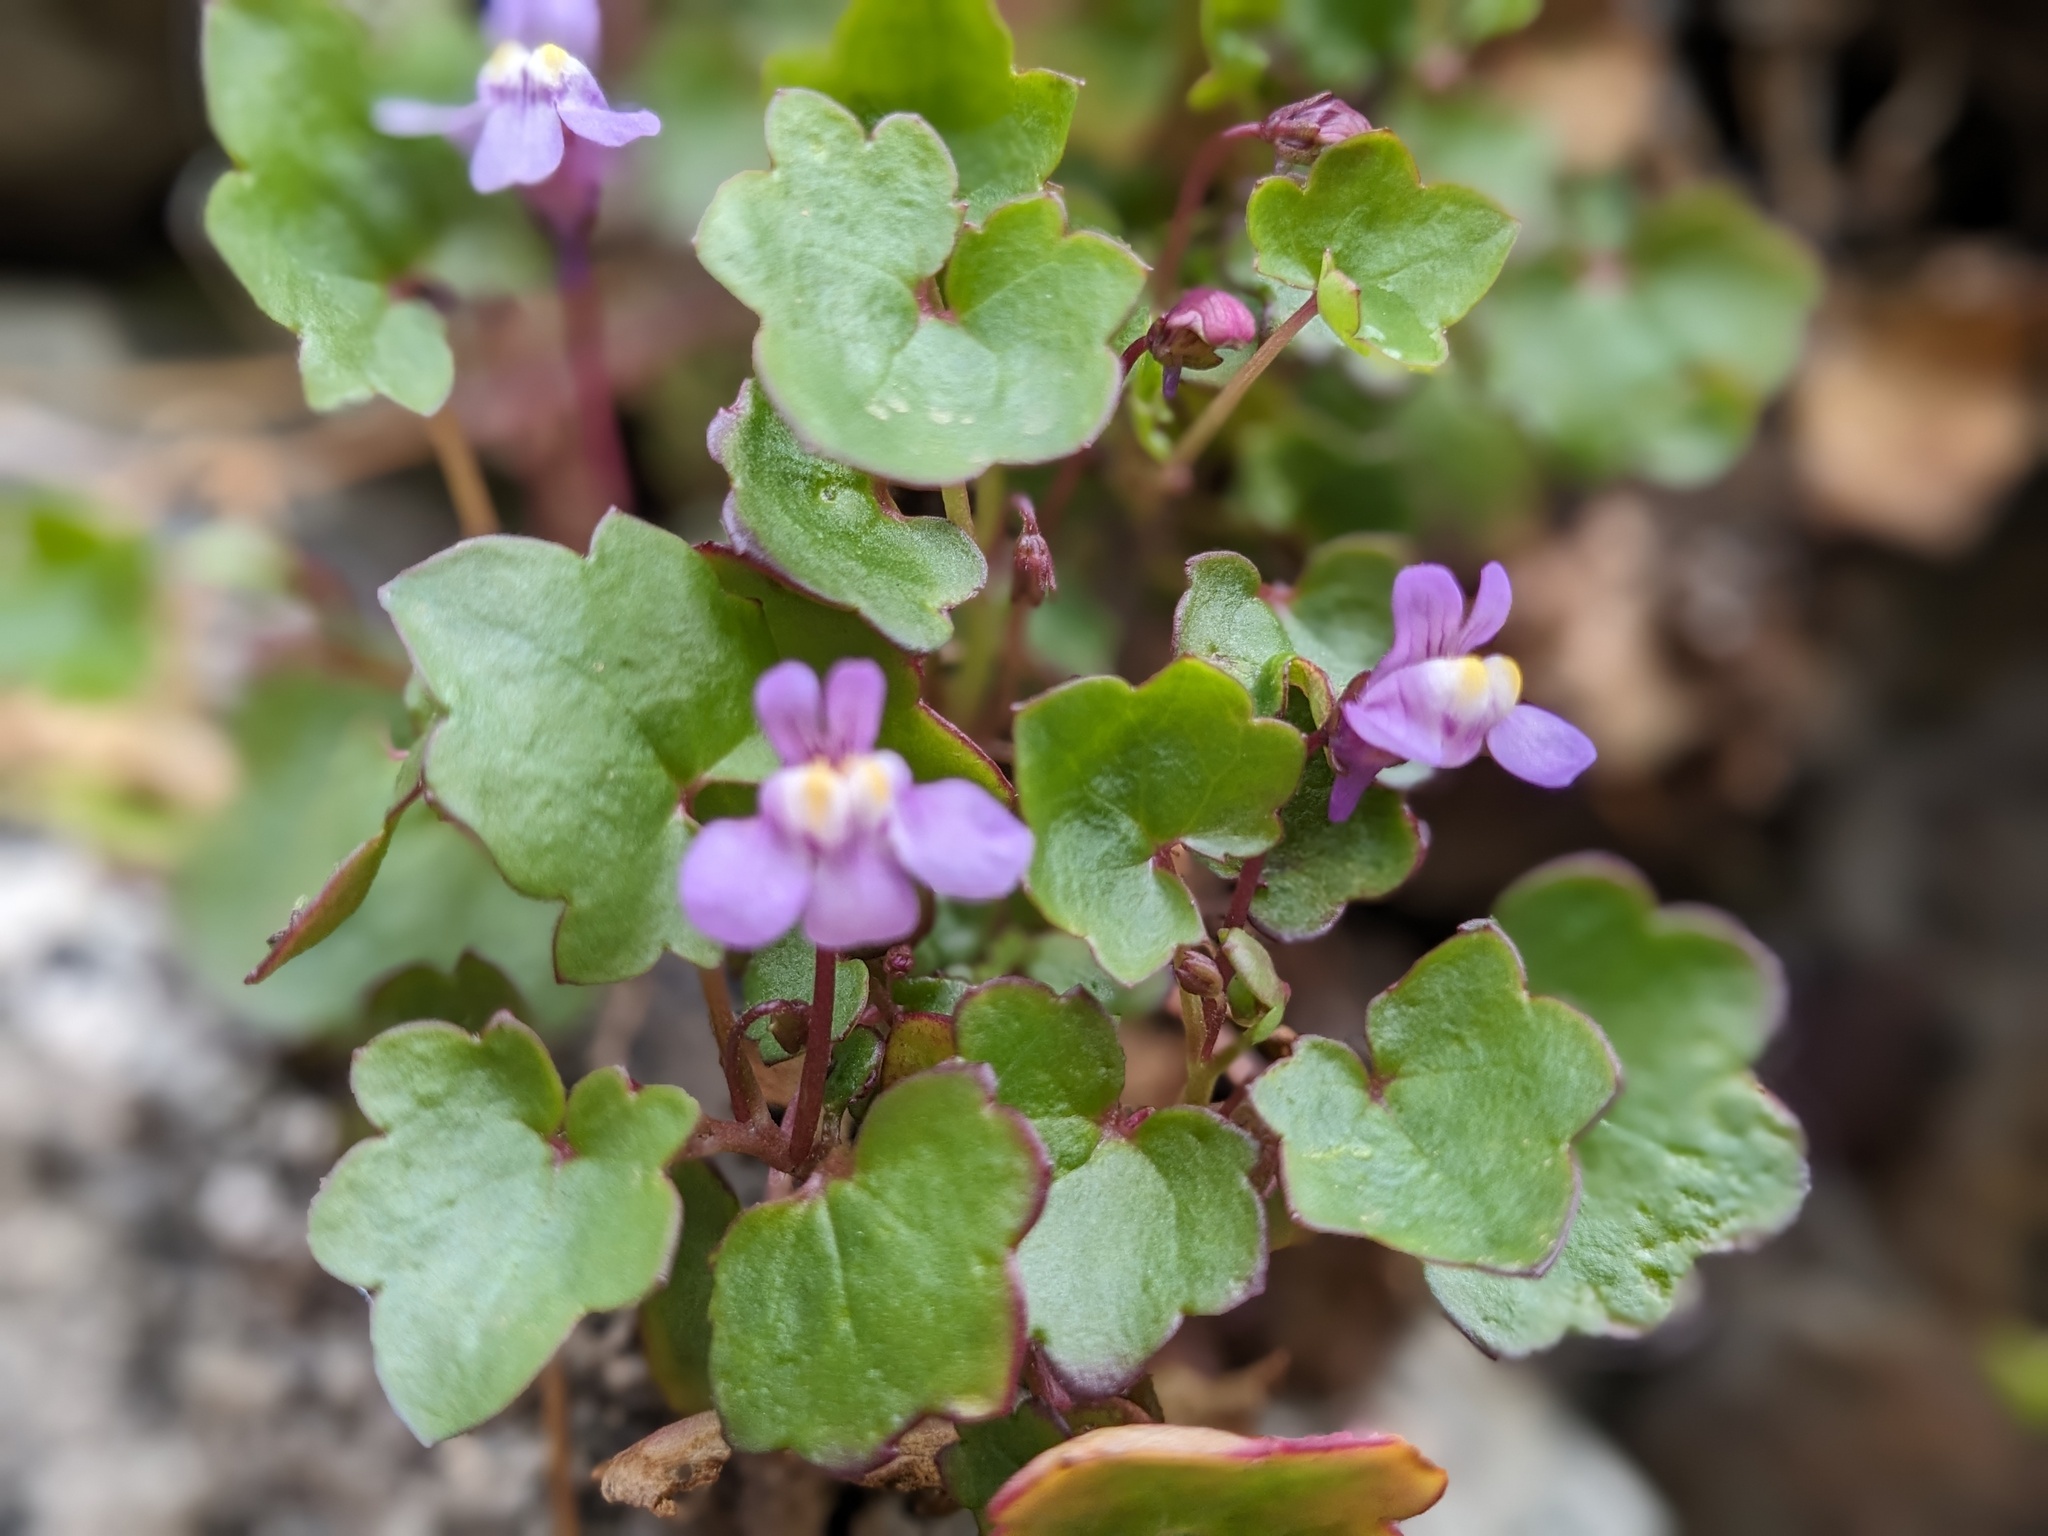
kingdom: Plantae
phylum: Tracheophyta
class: Magnoliopsida
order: Lamiales
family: Plantaginaceae
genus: Cymbalaria
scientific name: Cymbalaria muralis
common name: Ivy-leaved toadflax
